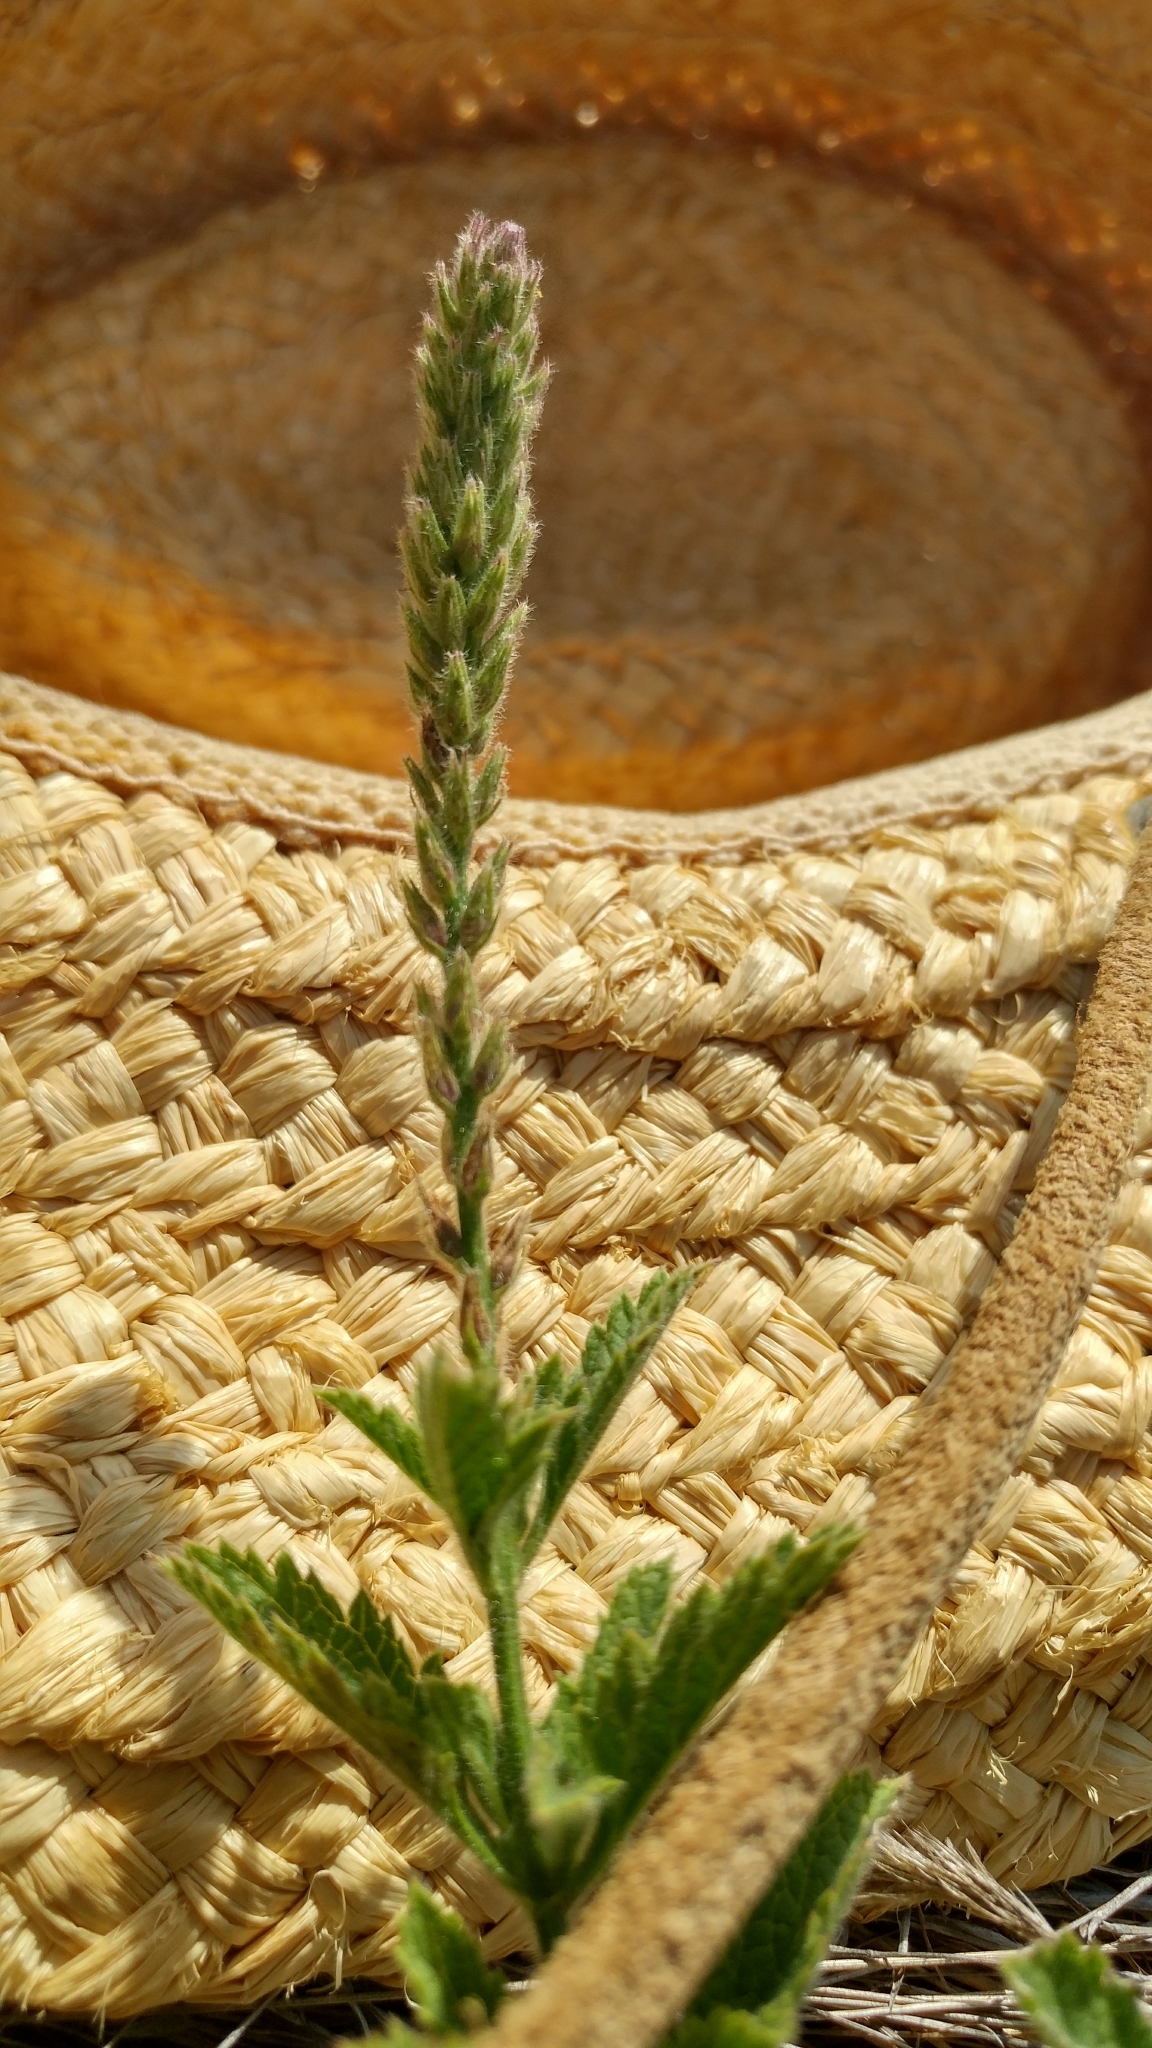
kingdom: Plantae
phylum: Tracheophyta
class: Magnoliopsida
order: Lamiales
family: Verbenaceae
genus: Verbena
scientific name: Verbena lasiostachys
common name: Vervain
